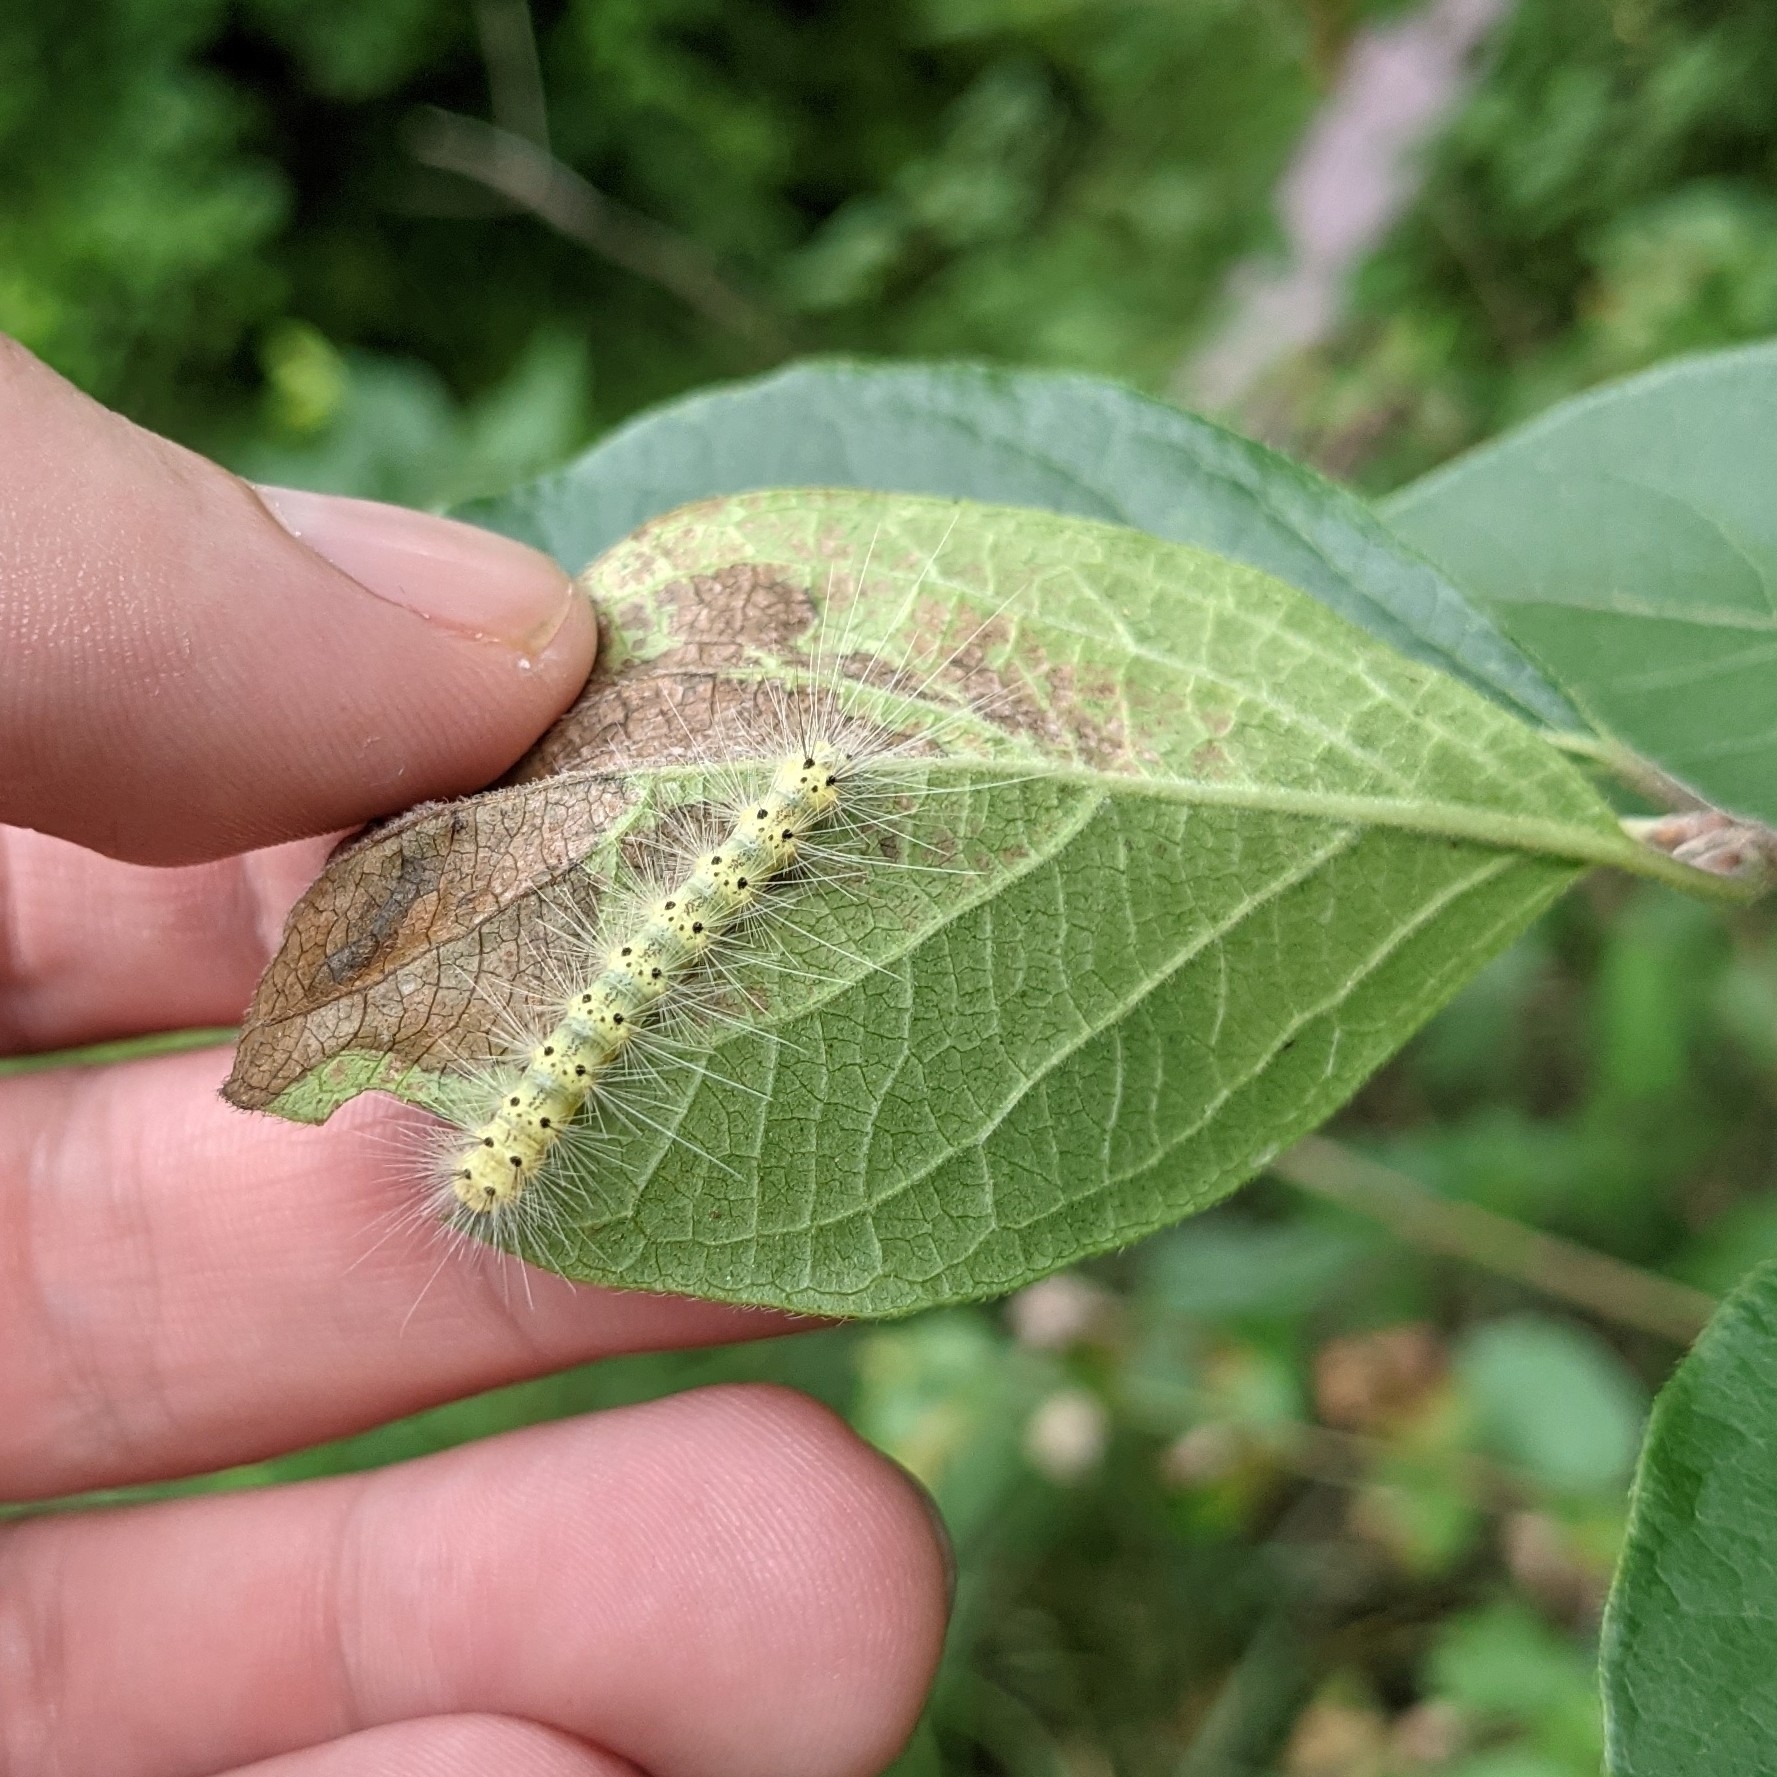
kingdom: Animalia
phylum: Arthropoda
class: Insecta
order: Lepidoptera
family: Erebidae
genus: Hyphantria
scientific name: Hyphantria cunea
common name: American white moth
